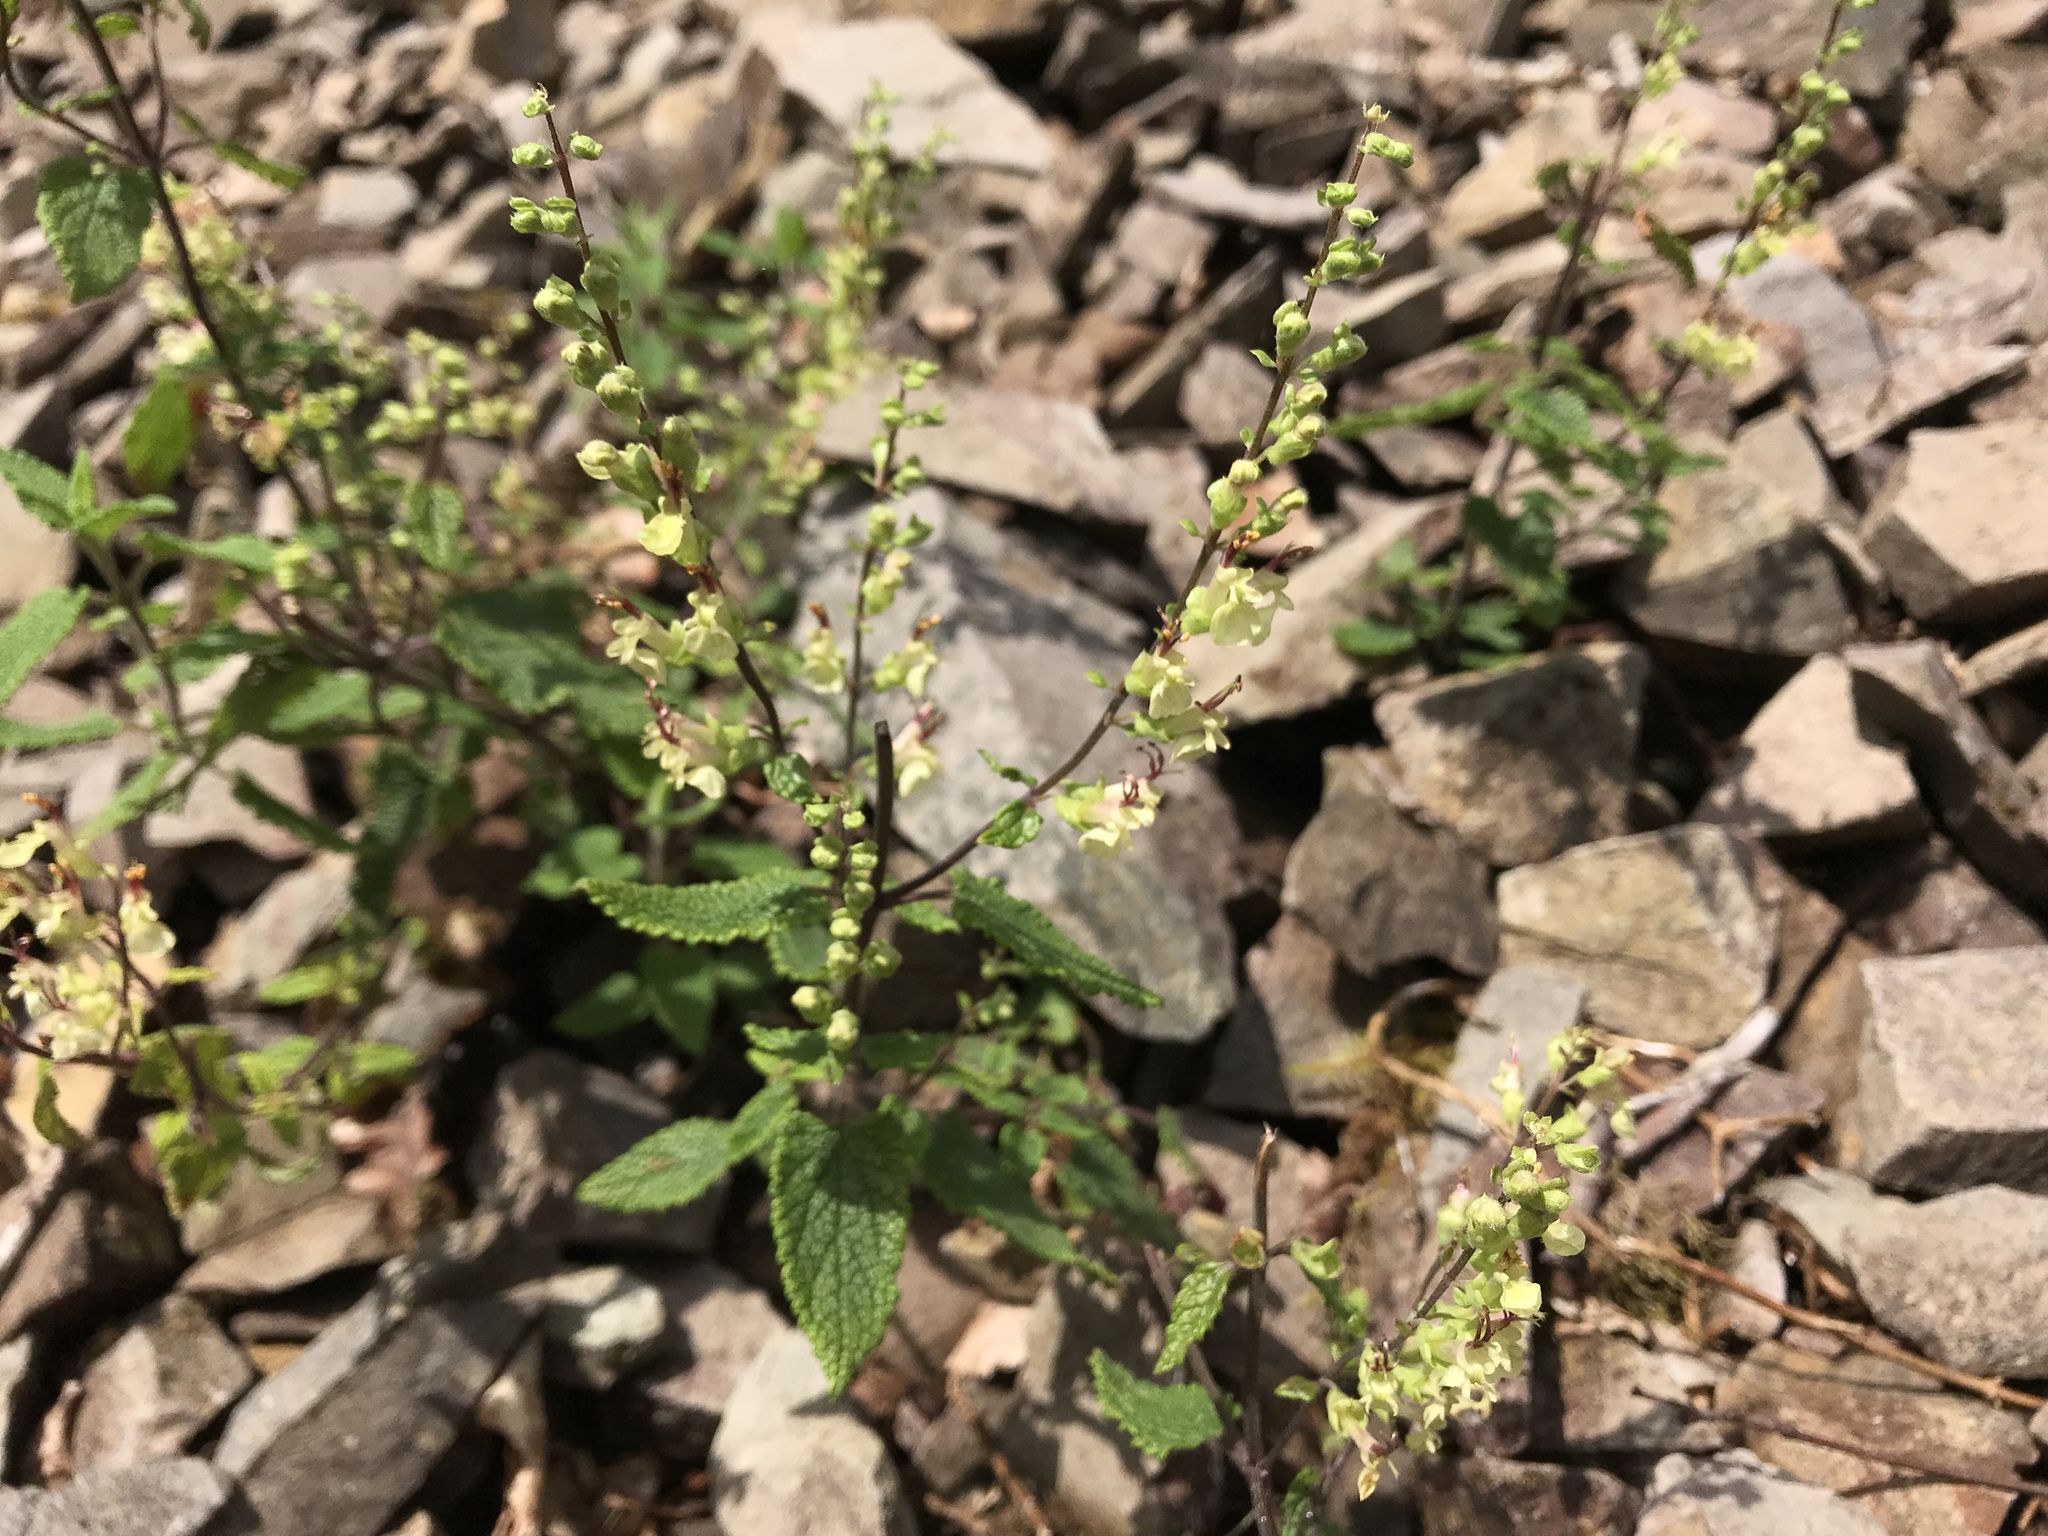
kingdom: Plantae
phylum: Tracheophyta
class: Magnoliopsida
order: Lamiales
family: Lamiaceae
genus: Teucrium
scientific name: Teucrium scorodonia
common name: Woodland germander
